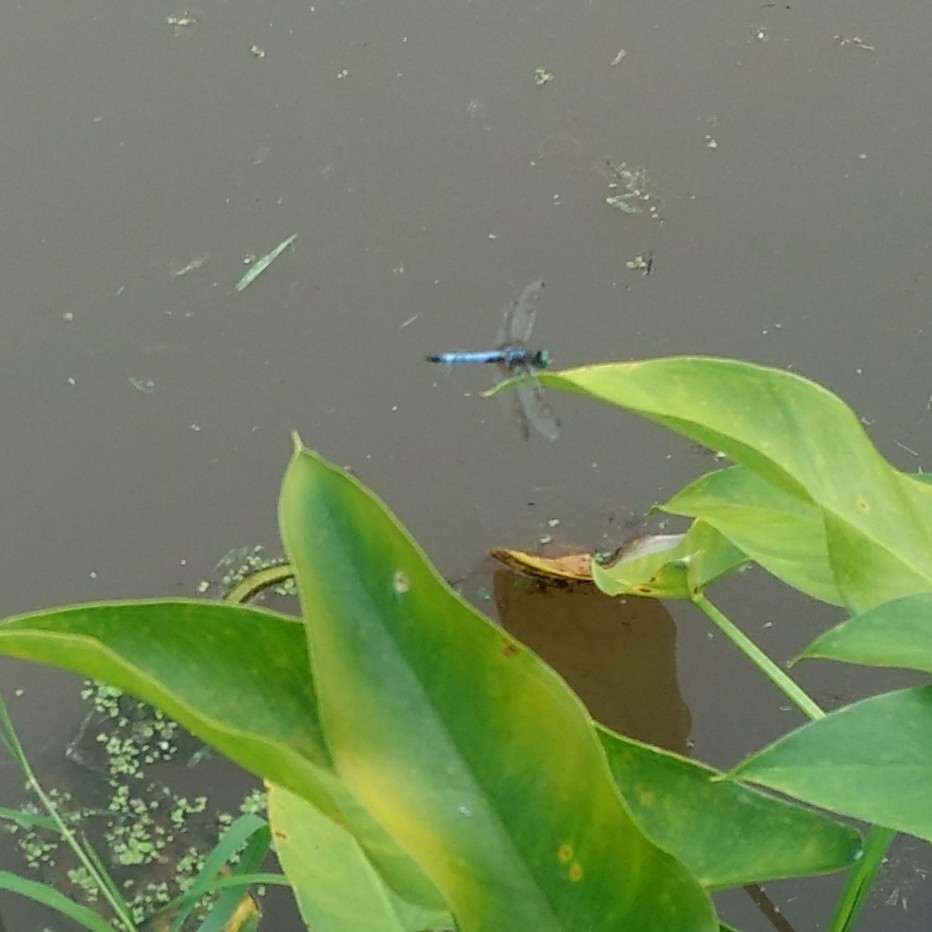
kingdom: Animalia
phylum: Arthropoda
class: Insecta
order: Odonata
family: Libellulidae
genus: Pachydiplax
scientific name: Pachydiplax longipennis
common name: Blue dasher
